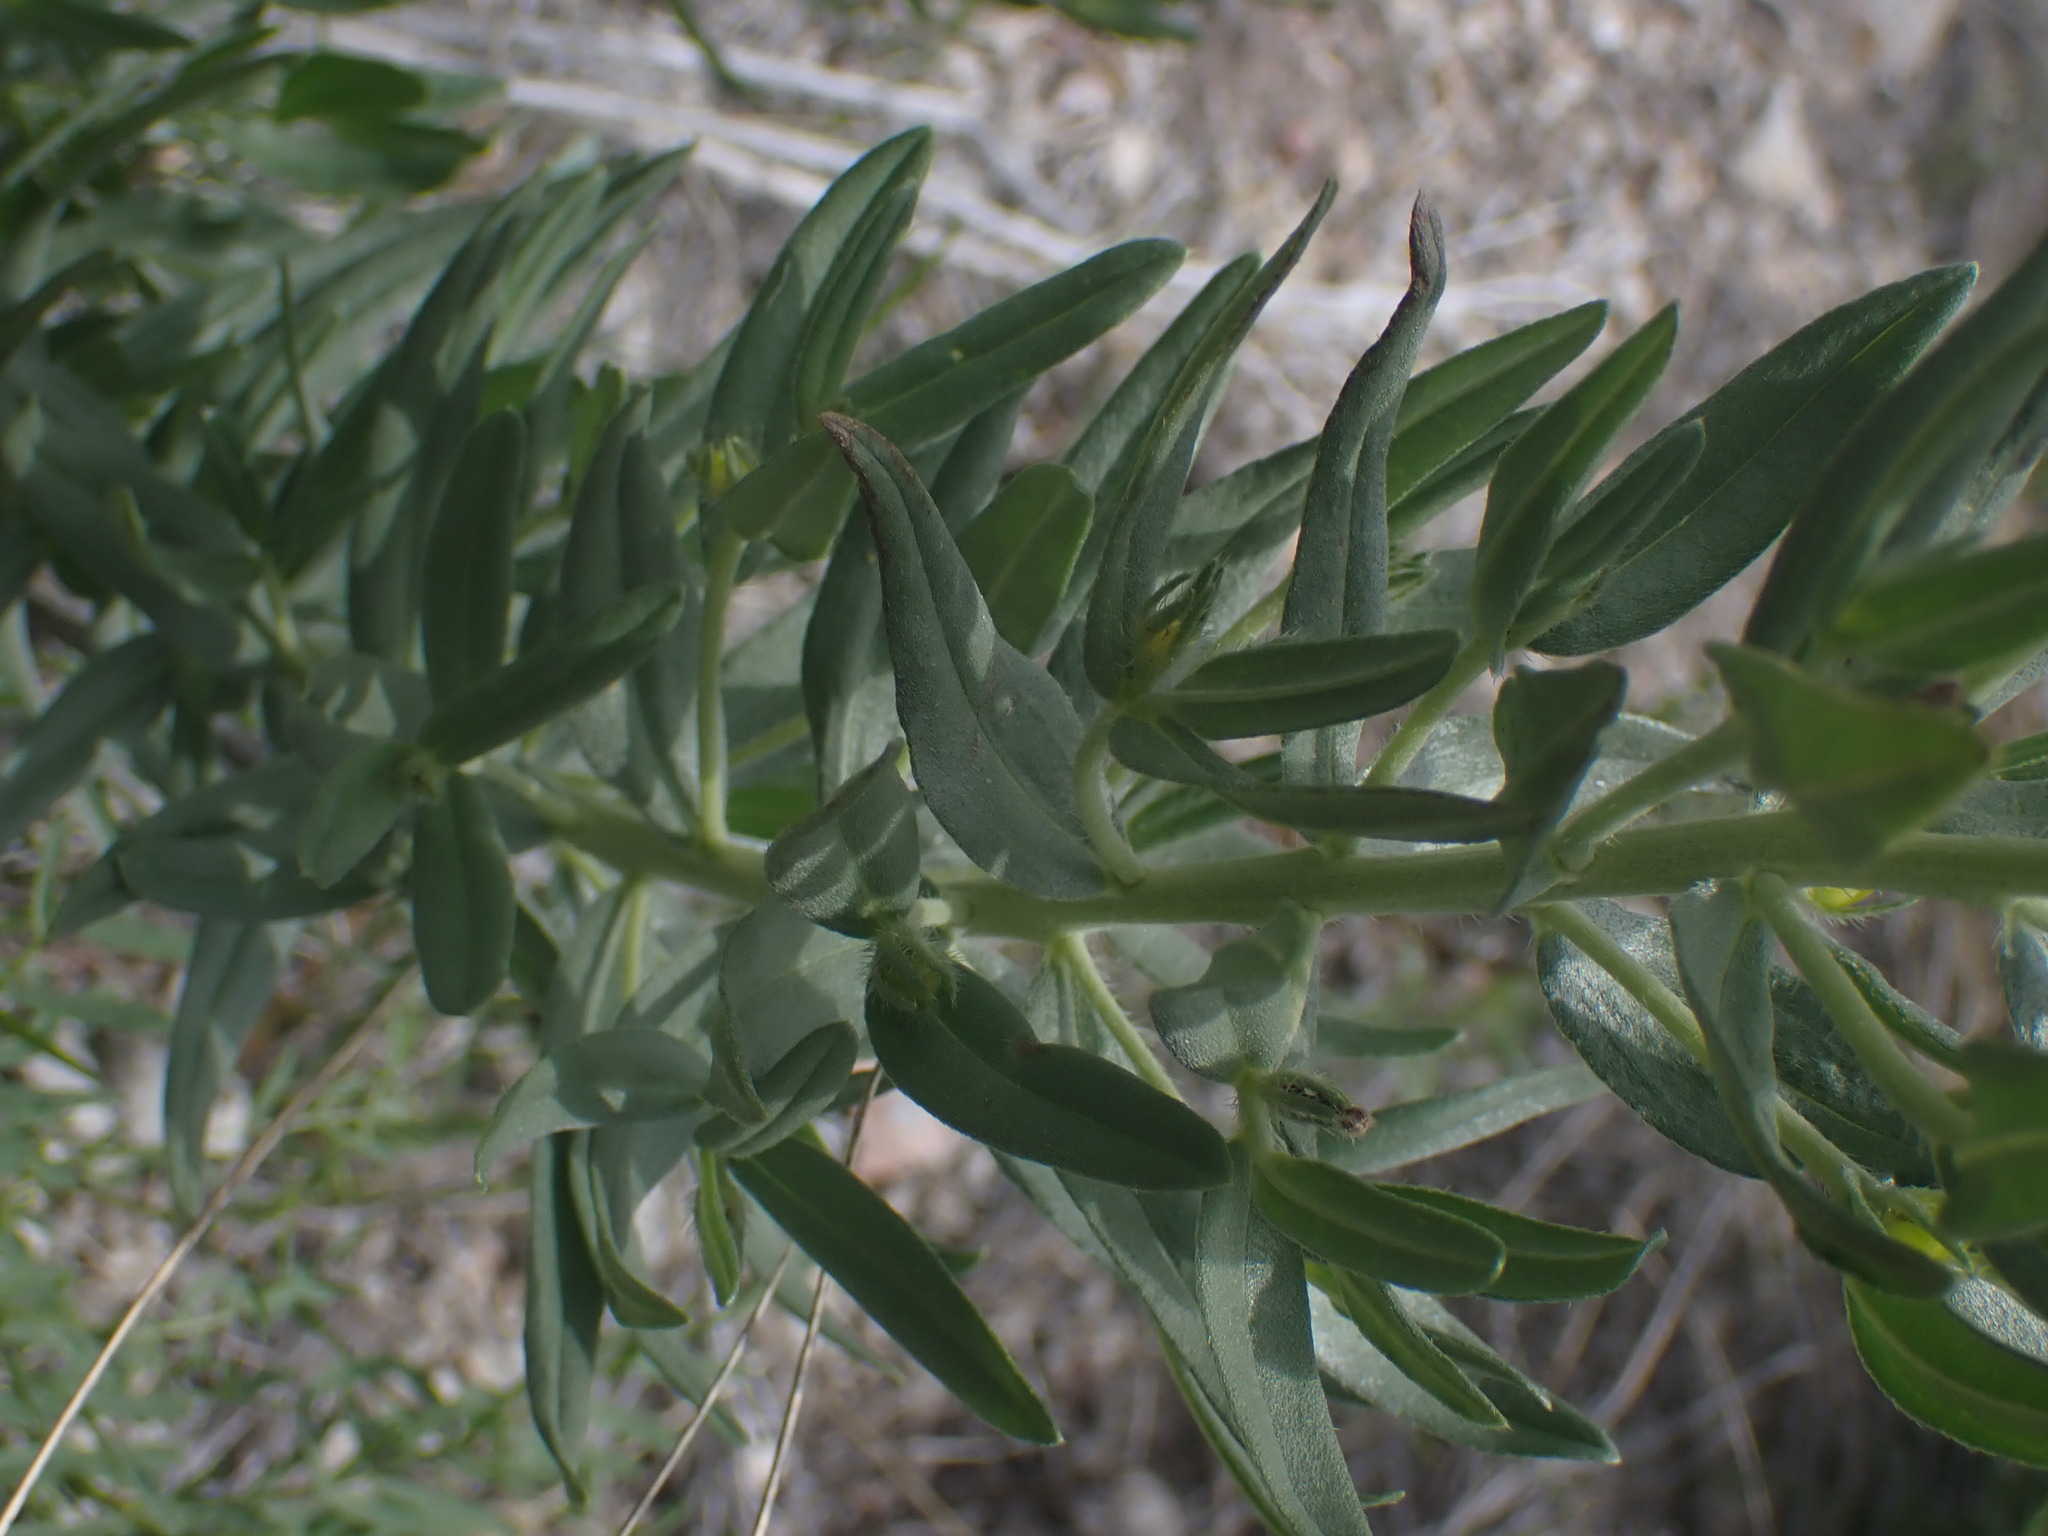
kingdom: Plantae
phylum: Tracheophyta
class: Magnoliopsida
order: Boraginales
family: Boraginaceae
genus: Lithospermum
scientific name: Lithospermum ruderale
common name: Western gromwell
